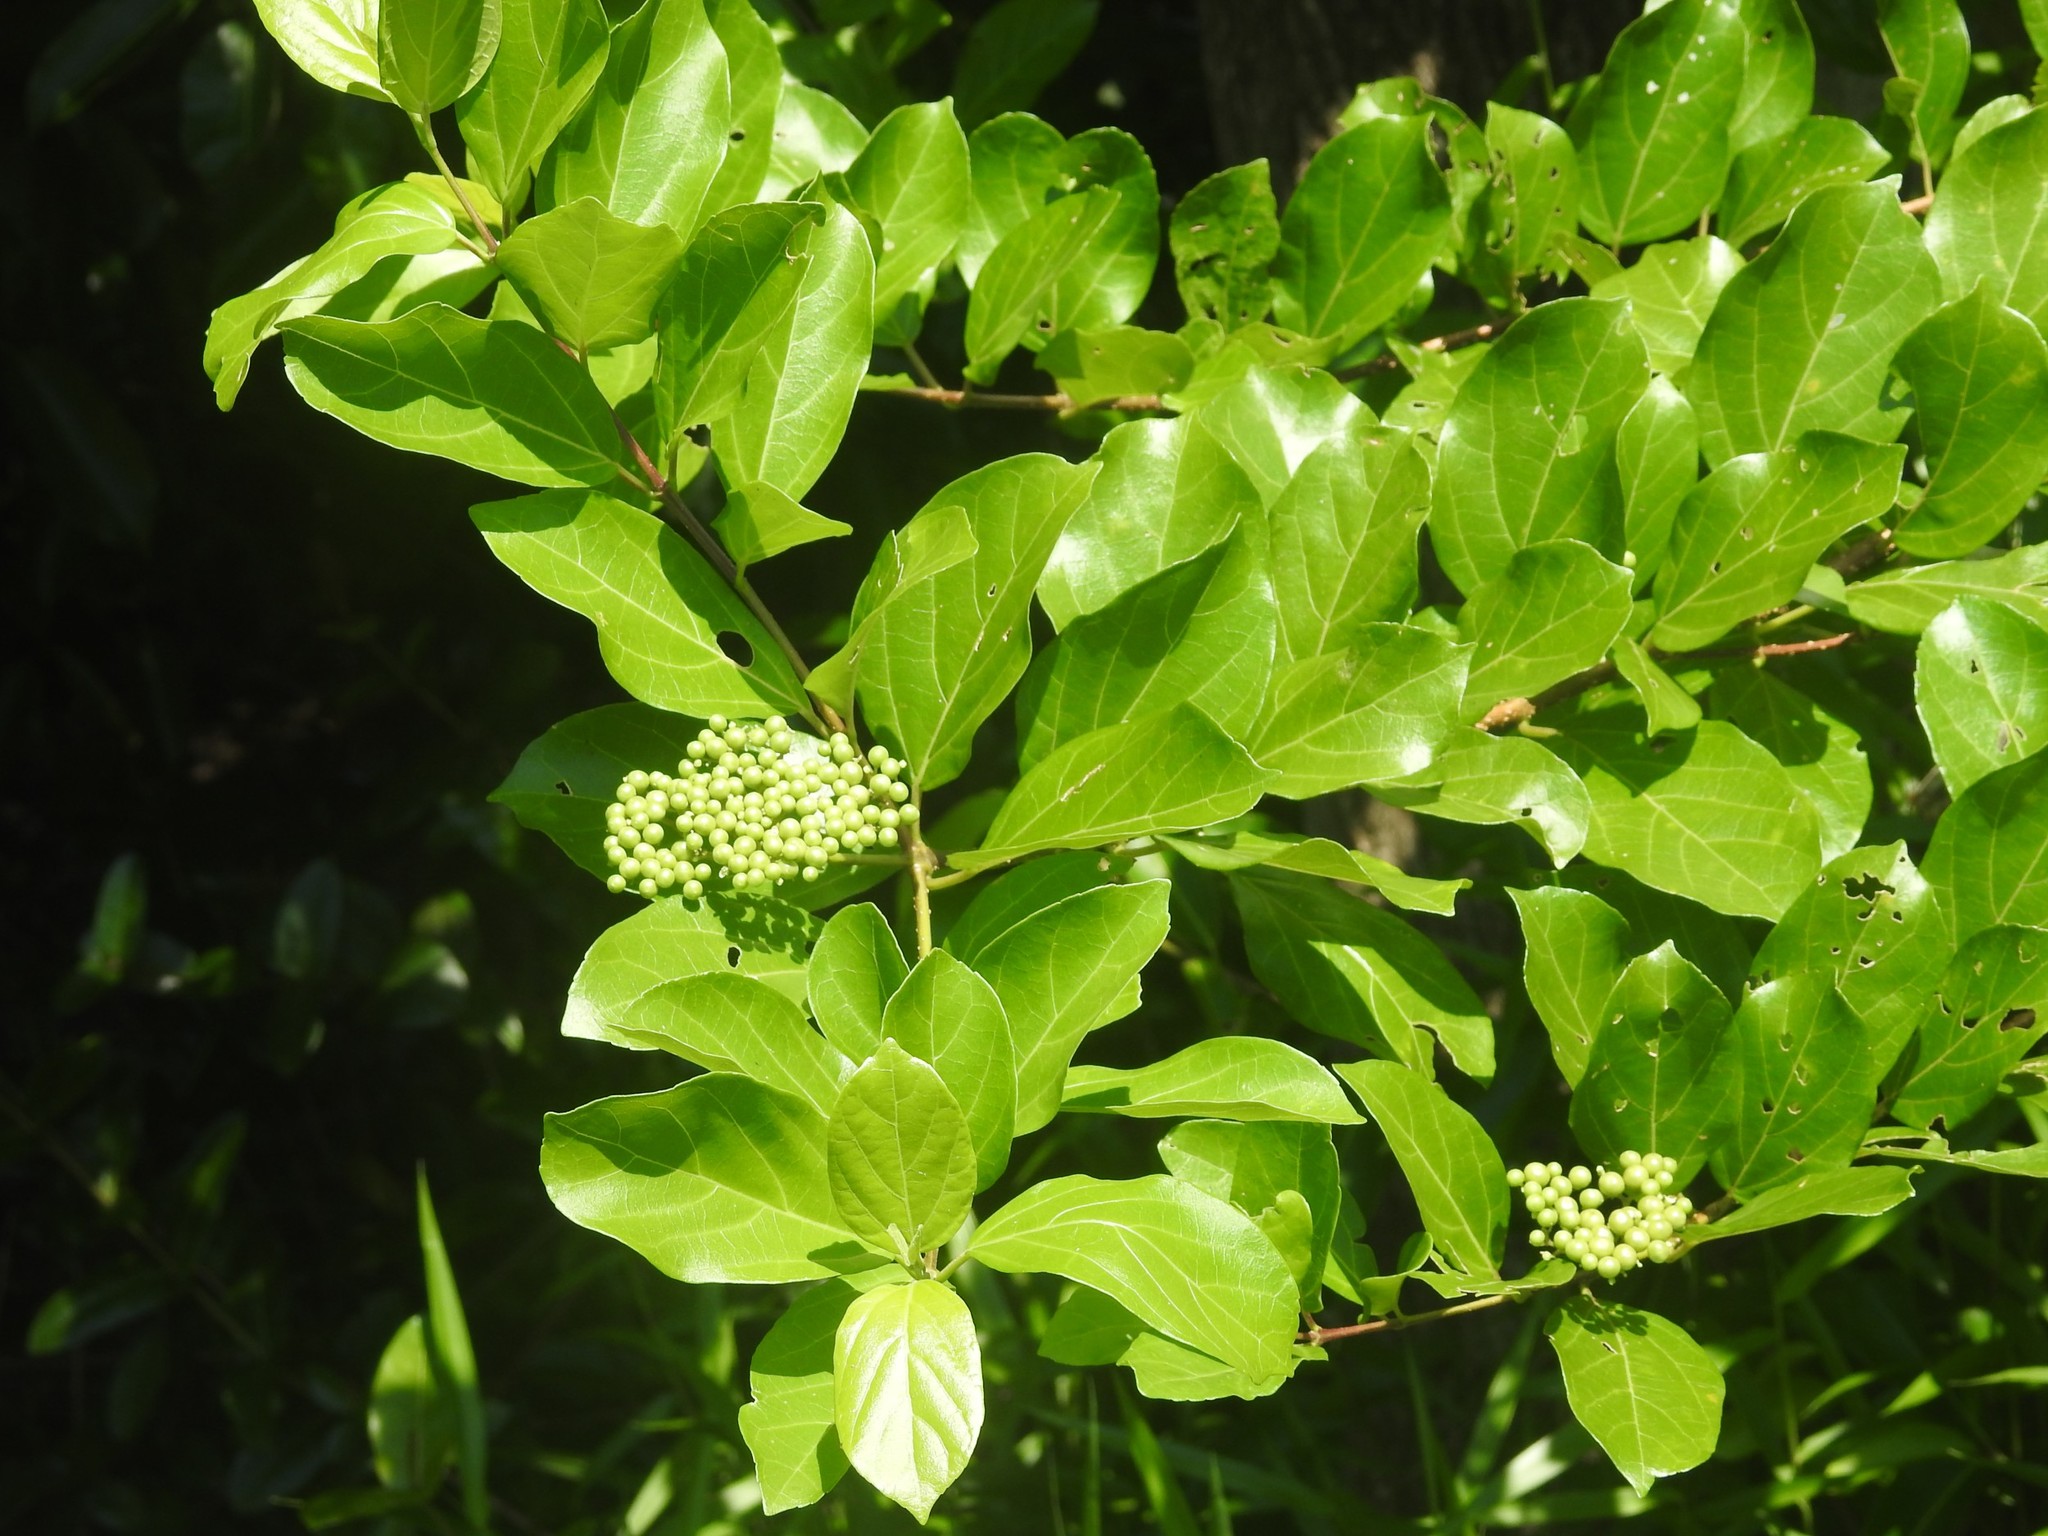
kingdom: Plantae
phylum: Tracheophyta
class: Magnoliopsida
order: Lamiales
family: Lamiaceae
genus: Premna
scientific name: Premna mollissima
